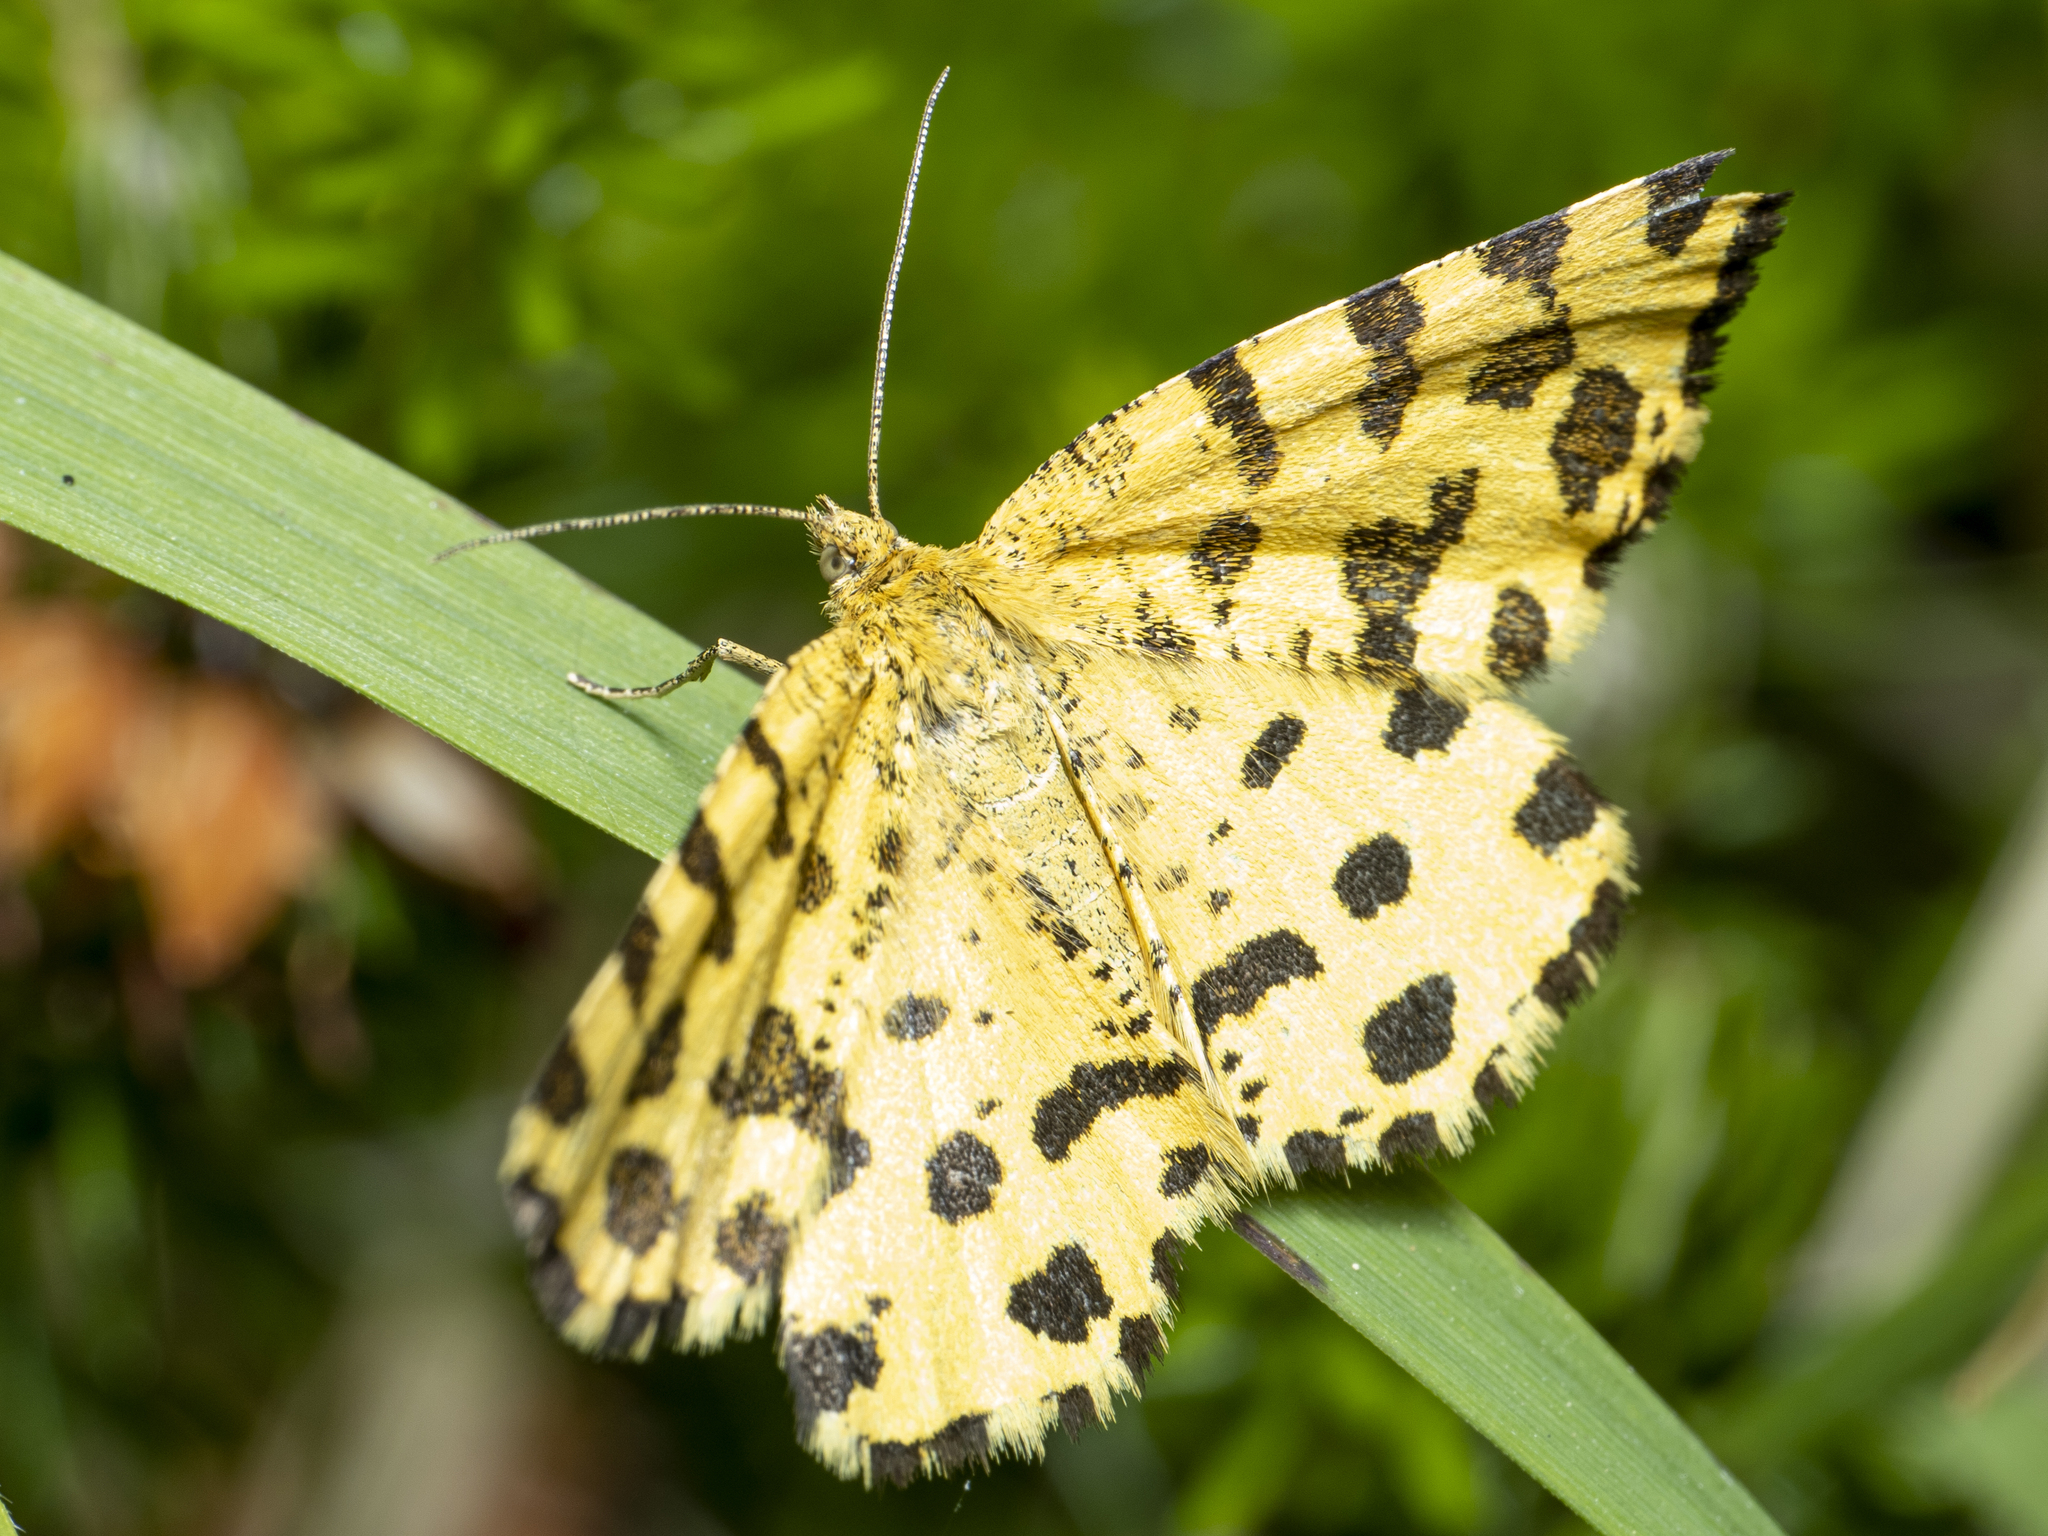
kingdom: Animalia
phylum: Arthropoda
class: Insecta
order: Lepidoptera
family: Geometridae
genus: Pseudopanthera
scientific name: Pseudopanthera macularia
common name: Speckled yellow
